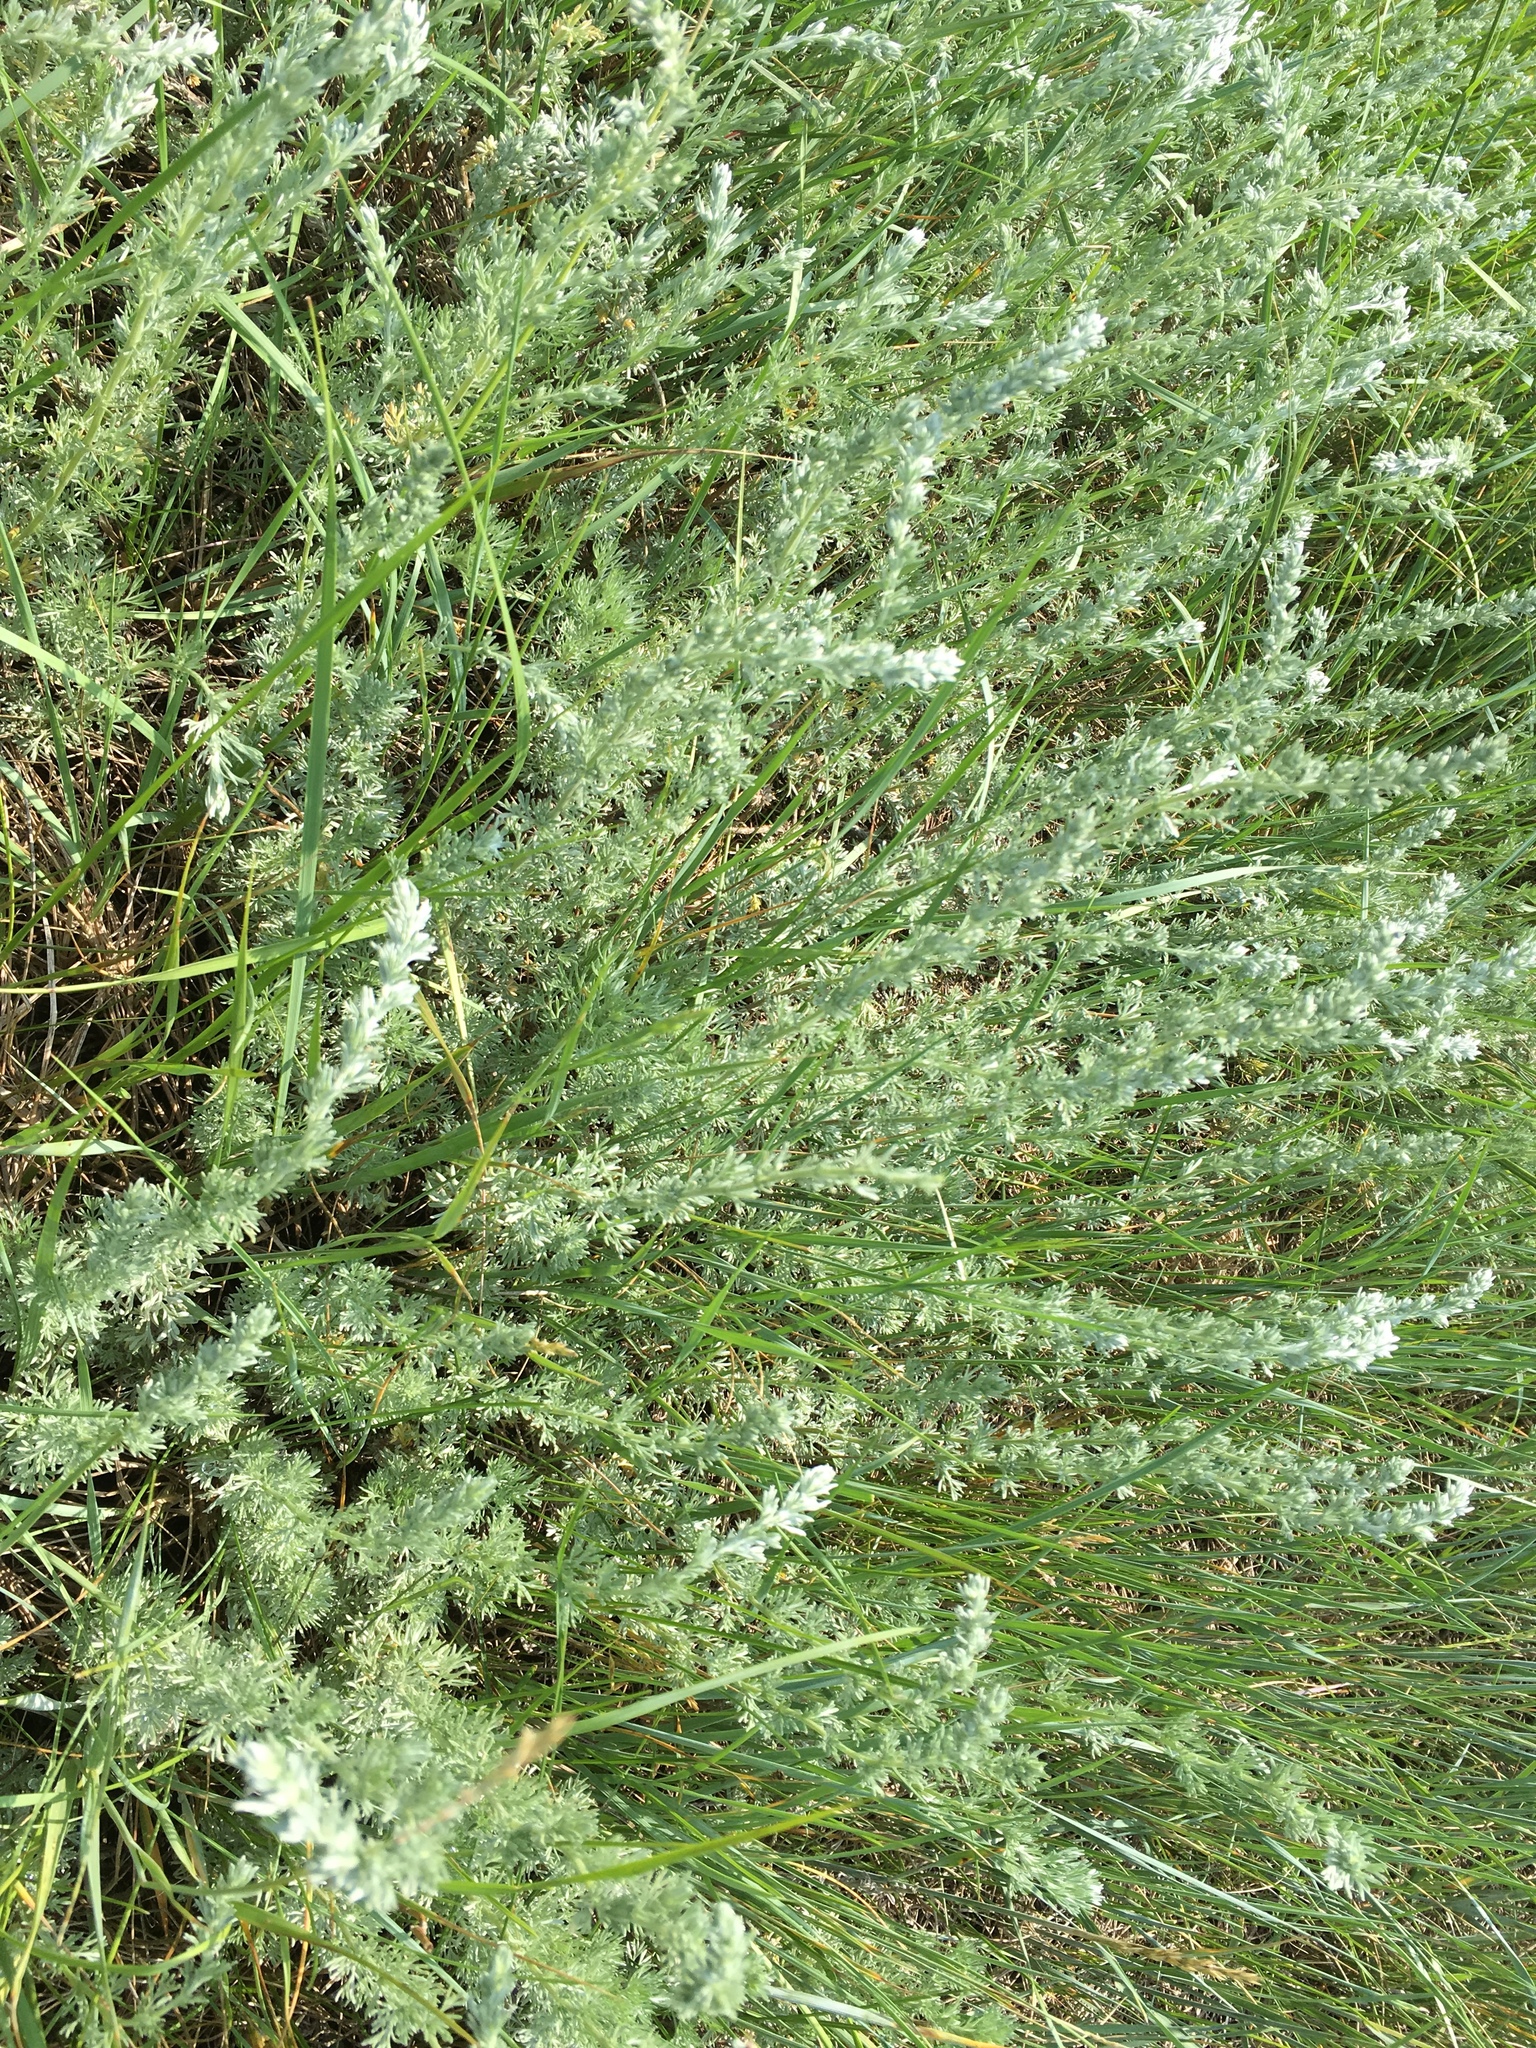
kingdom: Plantae
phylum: Tracheophyta
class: Magnoliopsida
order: Asterales
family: Asteraceae
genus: Artemisia
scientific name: Artemisia frigida
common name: Prairie sagewort
